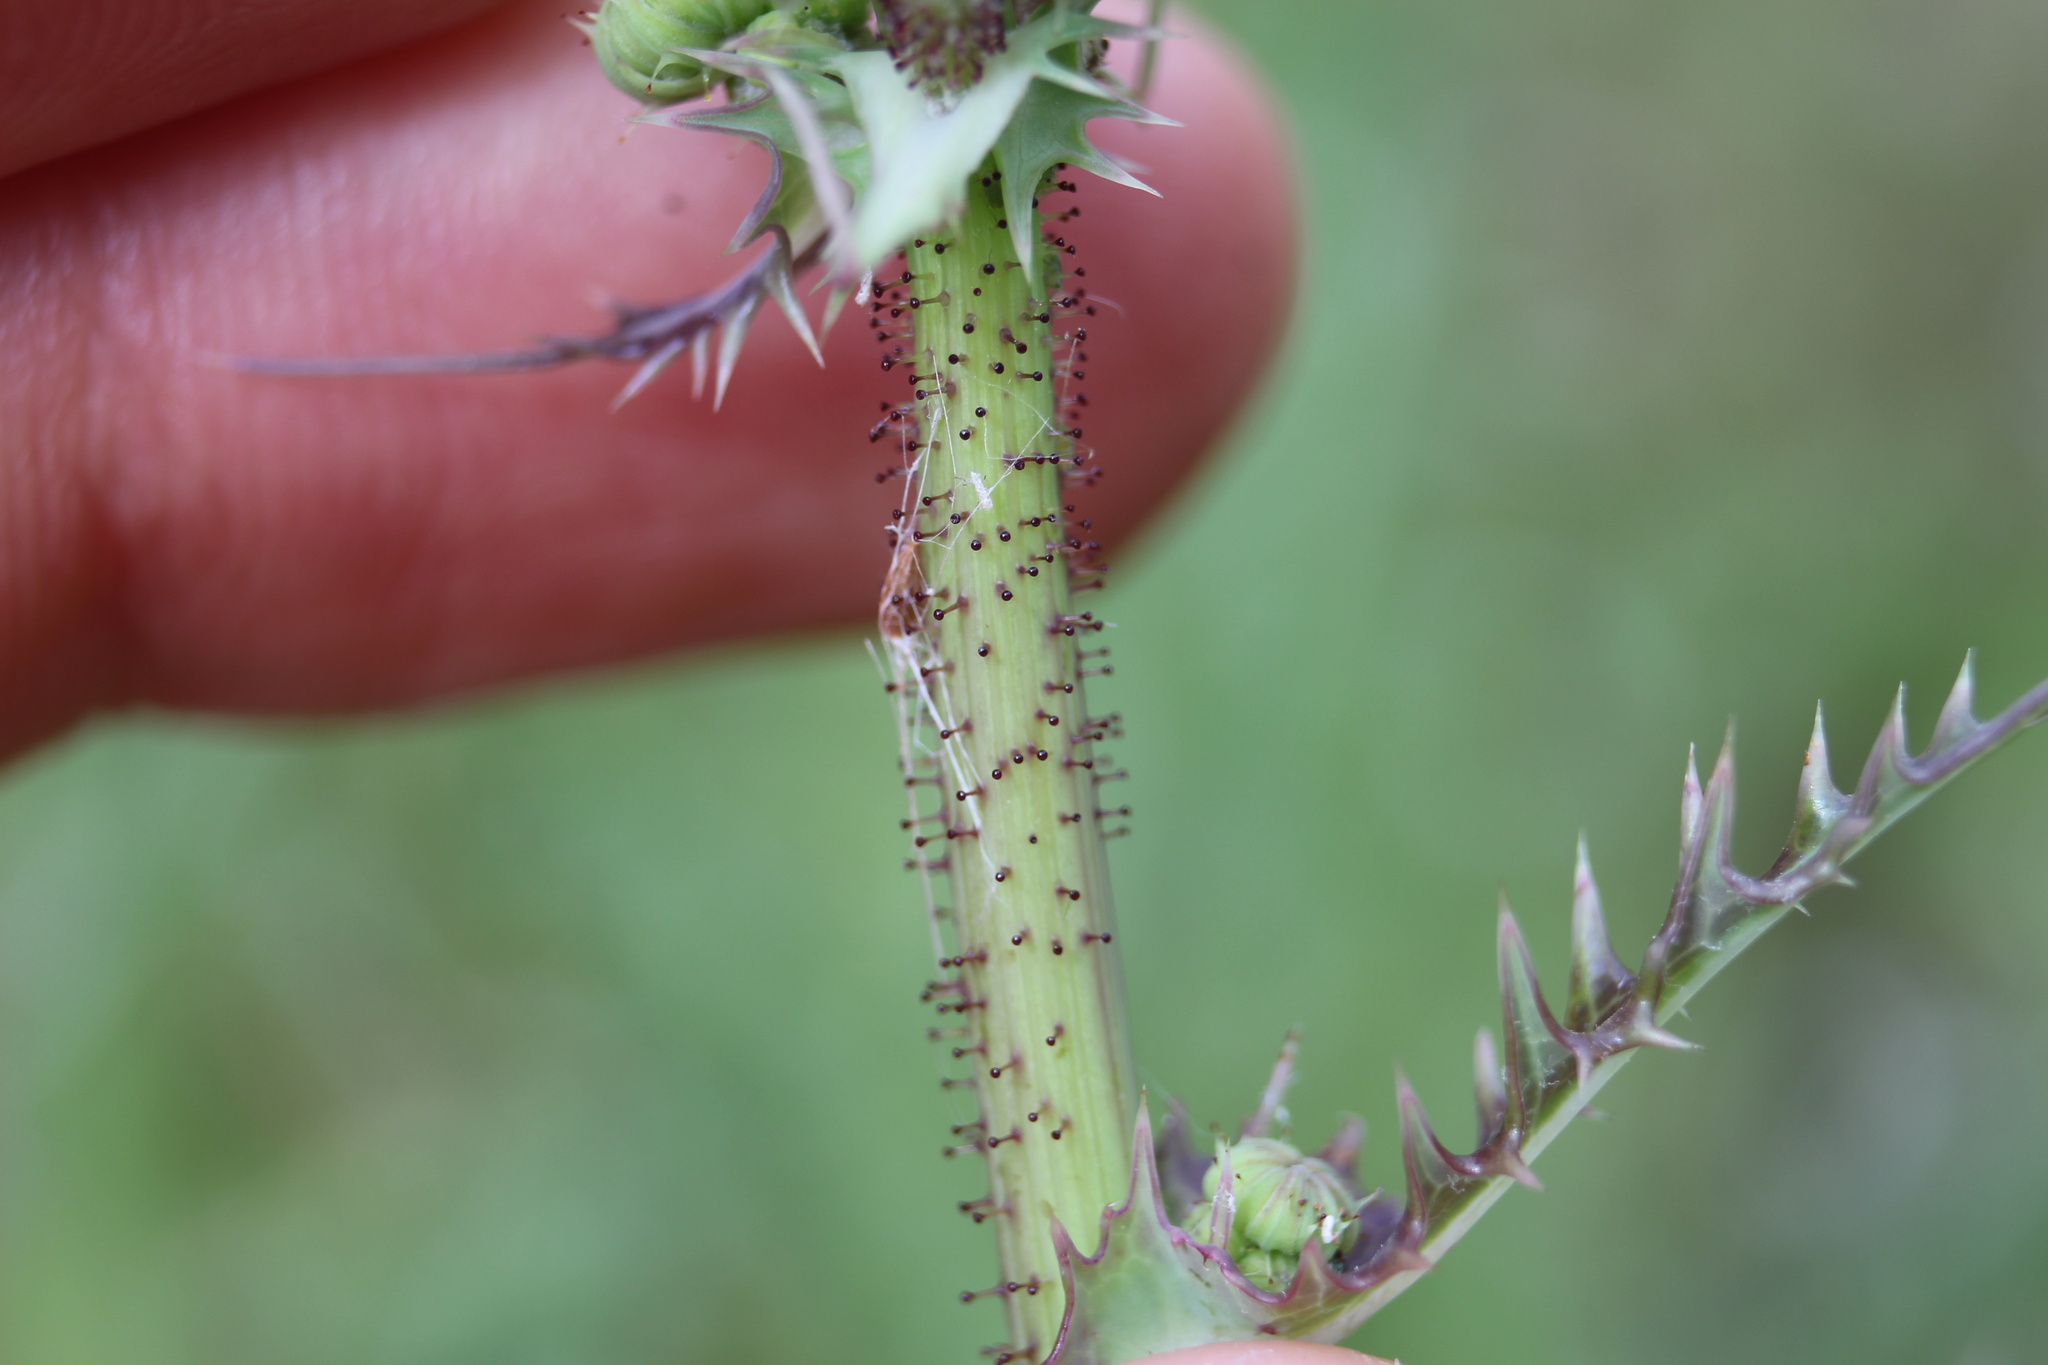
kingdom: Plantae
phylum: Tracheophyta
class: Magnoliopsida
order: Asterales
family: Asteraceae
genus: Sonchus
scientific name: Sonchus asper
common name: Prickly sow-thistle
